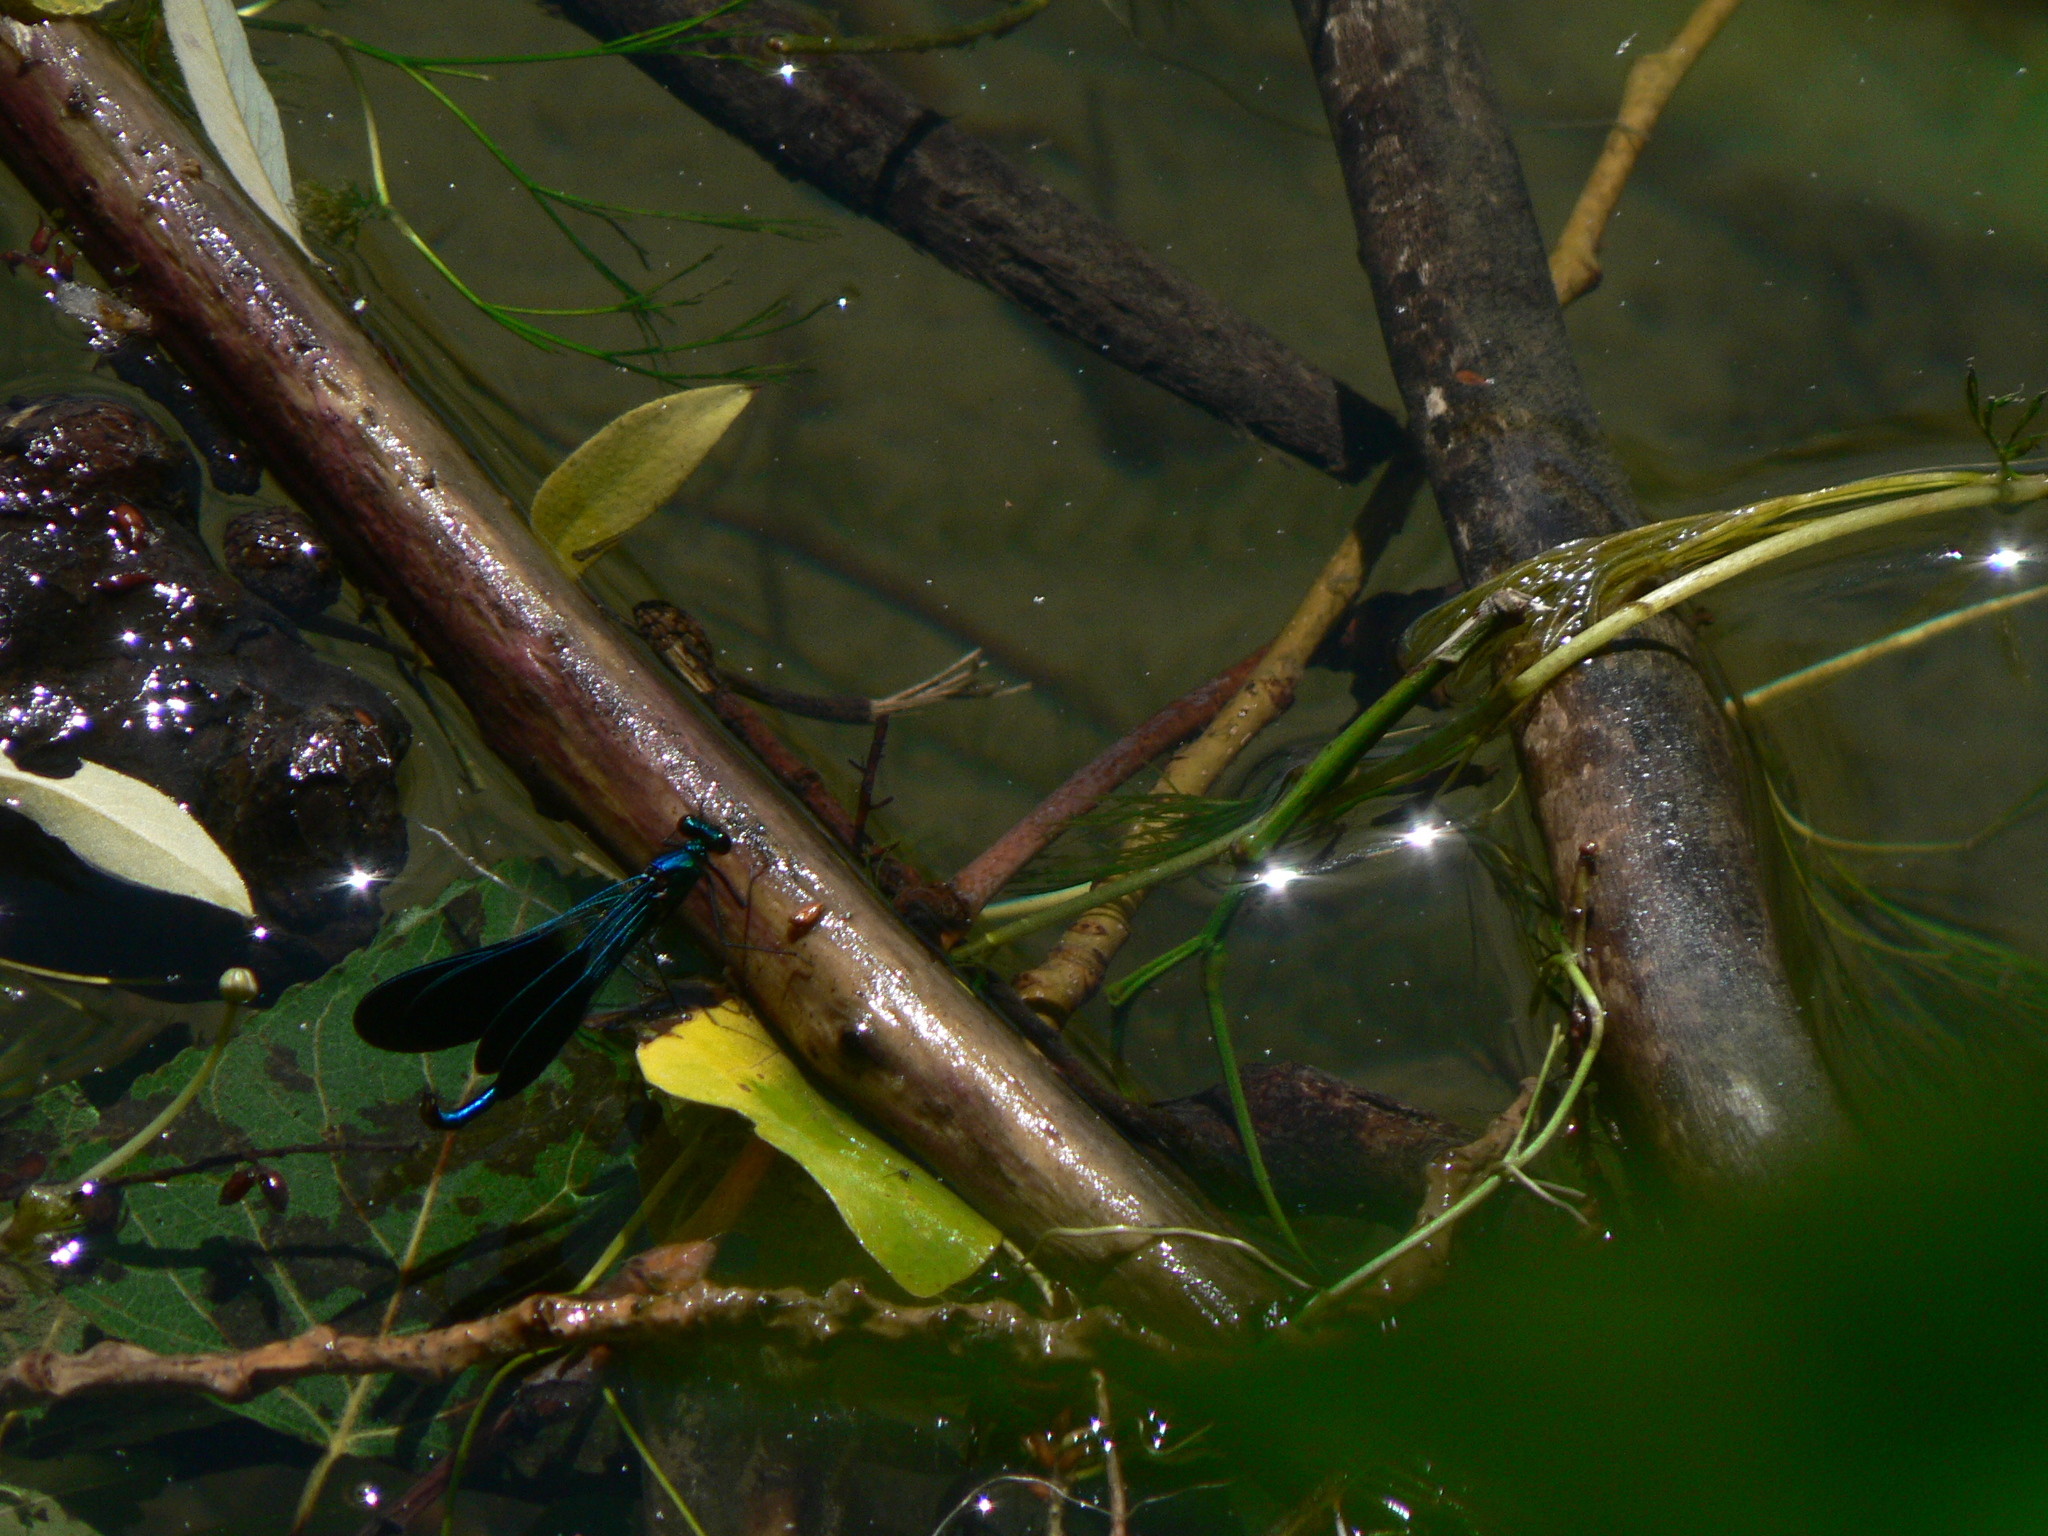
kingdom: Animalia
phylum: Arthropoda
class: Insecta
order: Odonata
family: Calopterygidae
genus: Calopteryx
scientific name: Calopteryx xanthostoma
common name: Western demoiselle
